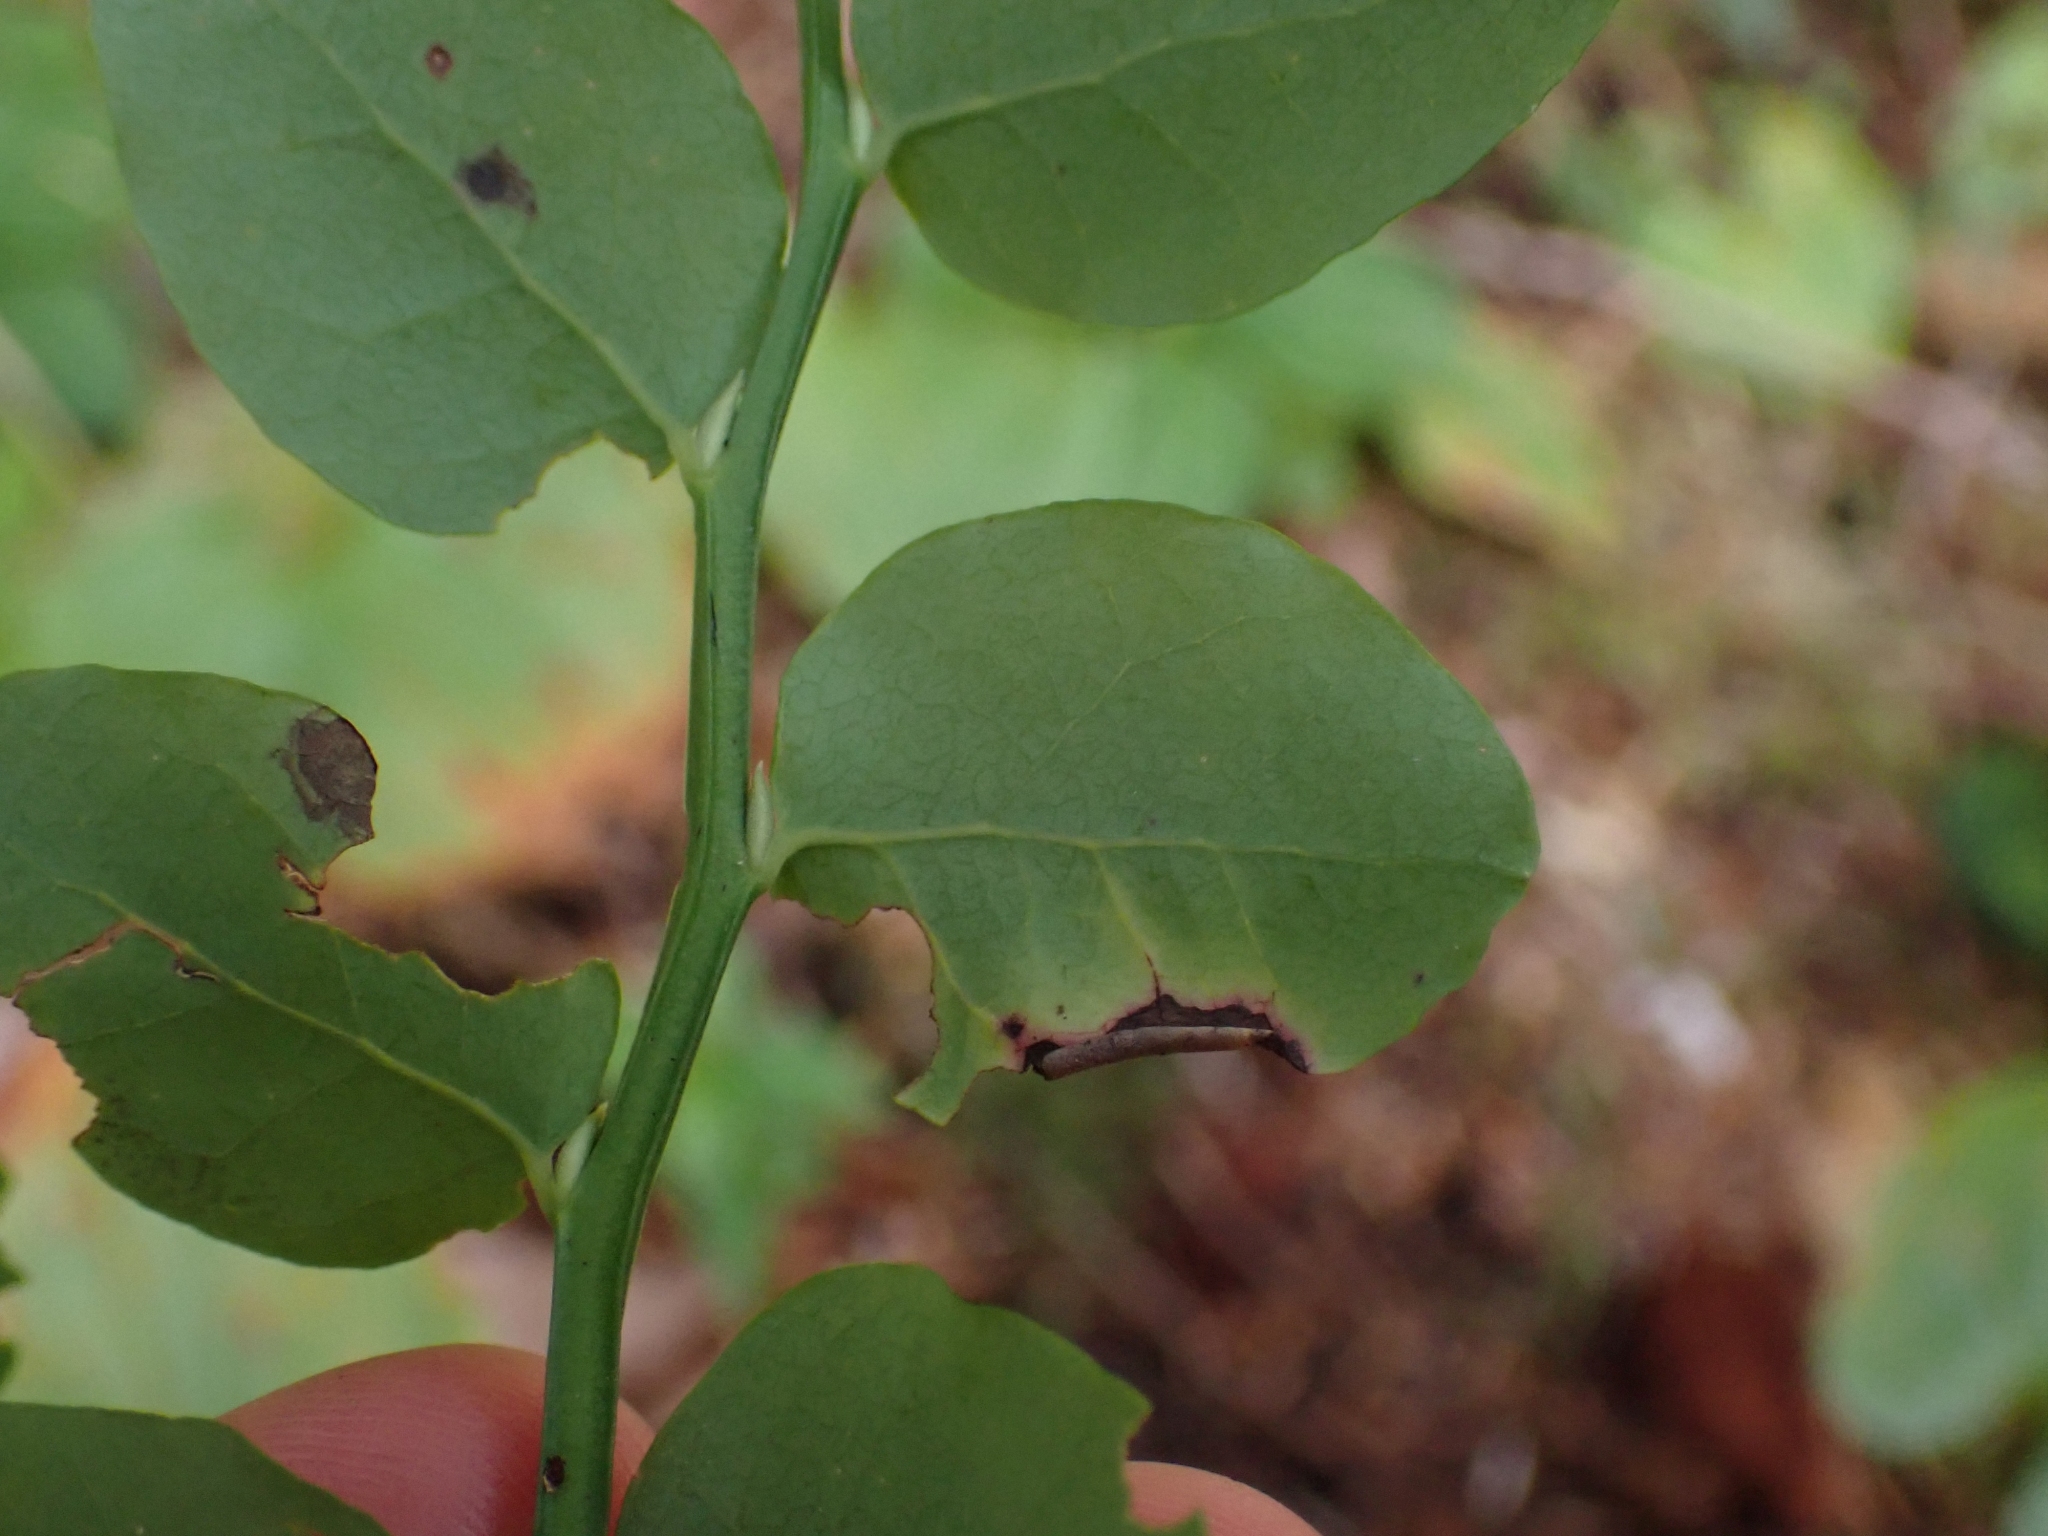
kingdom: Plantae
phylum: Tracheophyta
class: Magnoliopsida
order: Ericales
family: Ericaceae
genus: Vaccinium
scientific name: Vaccinium parvifolium
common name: Red-huckleberry
